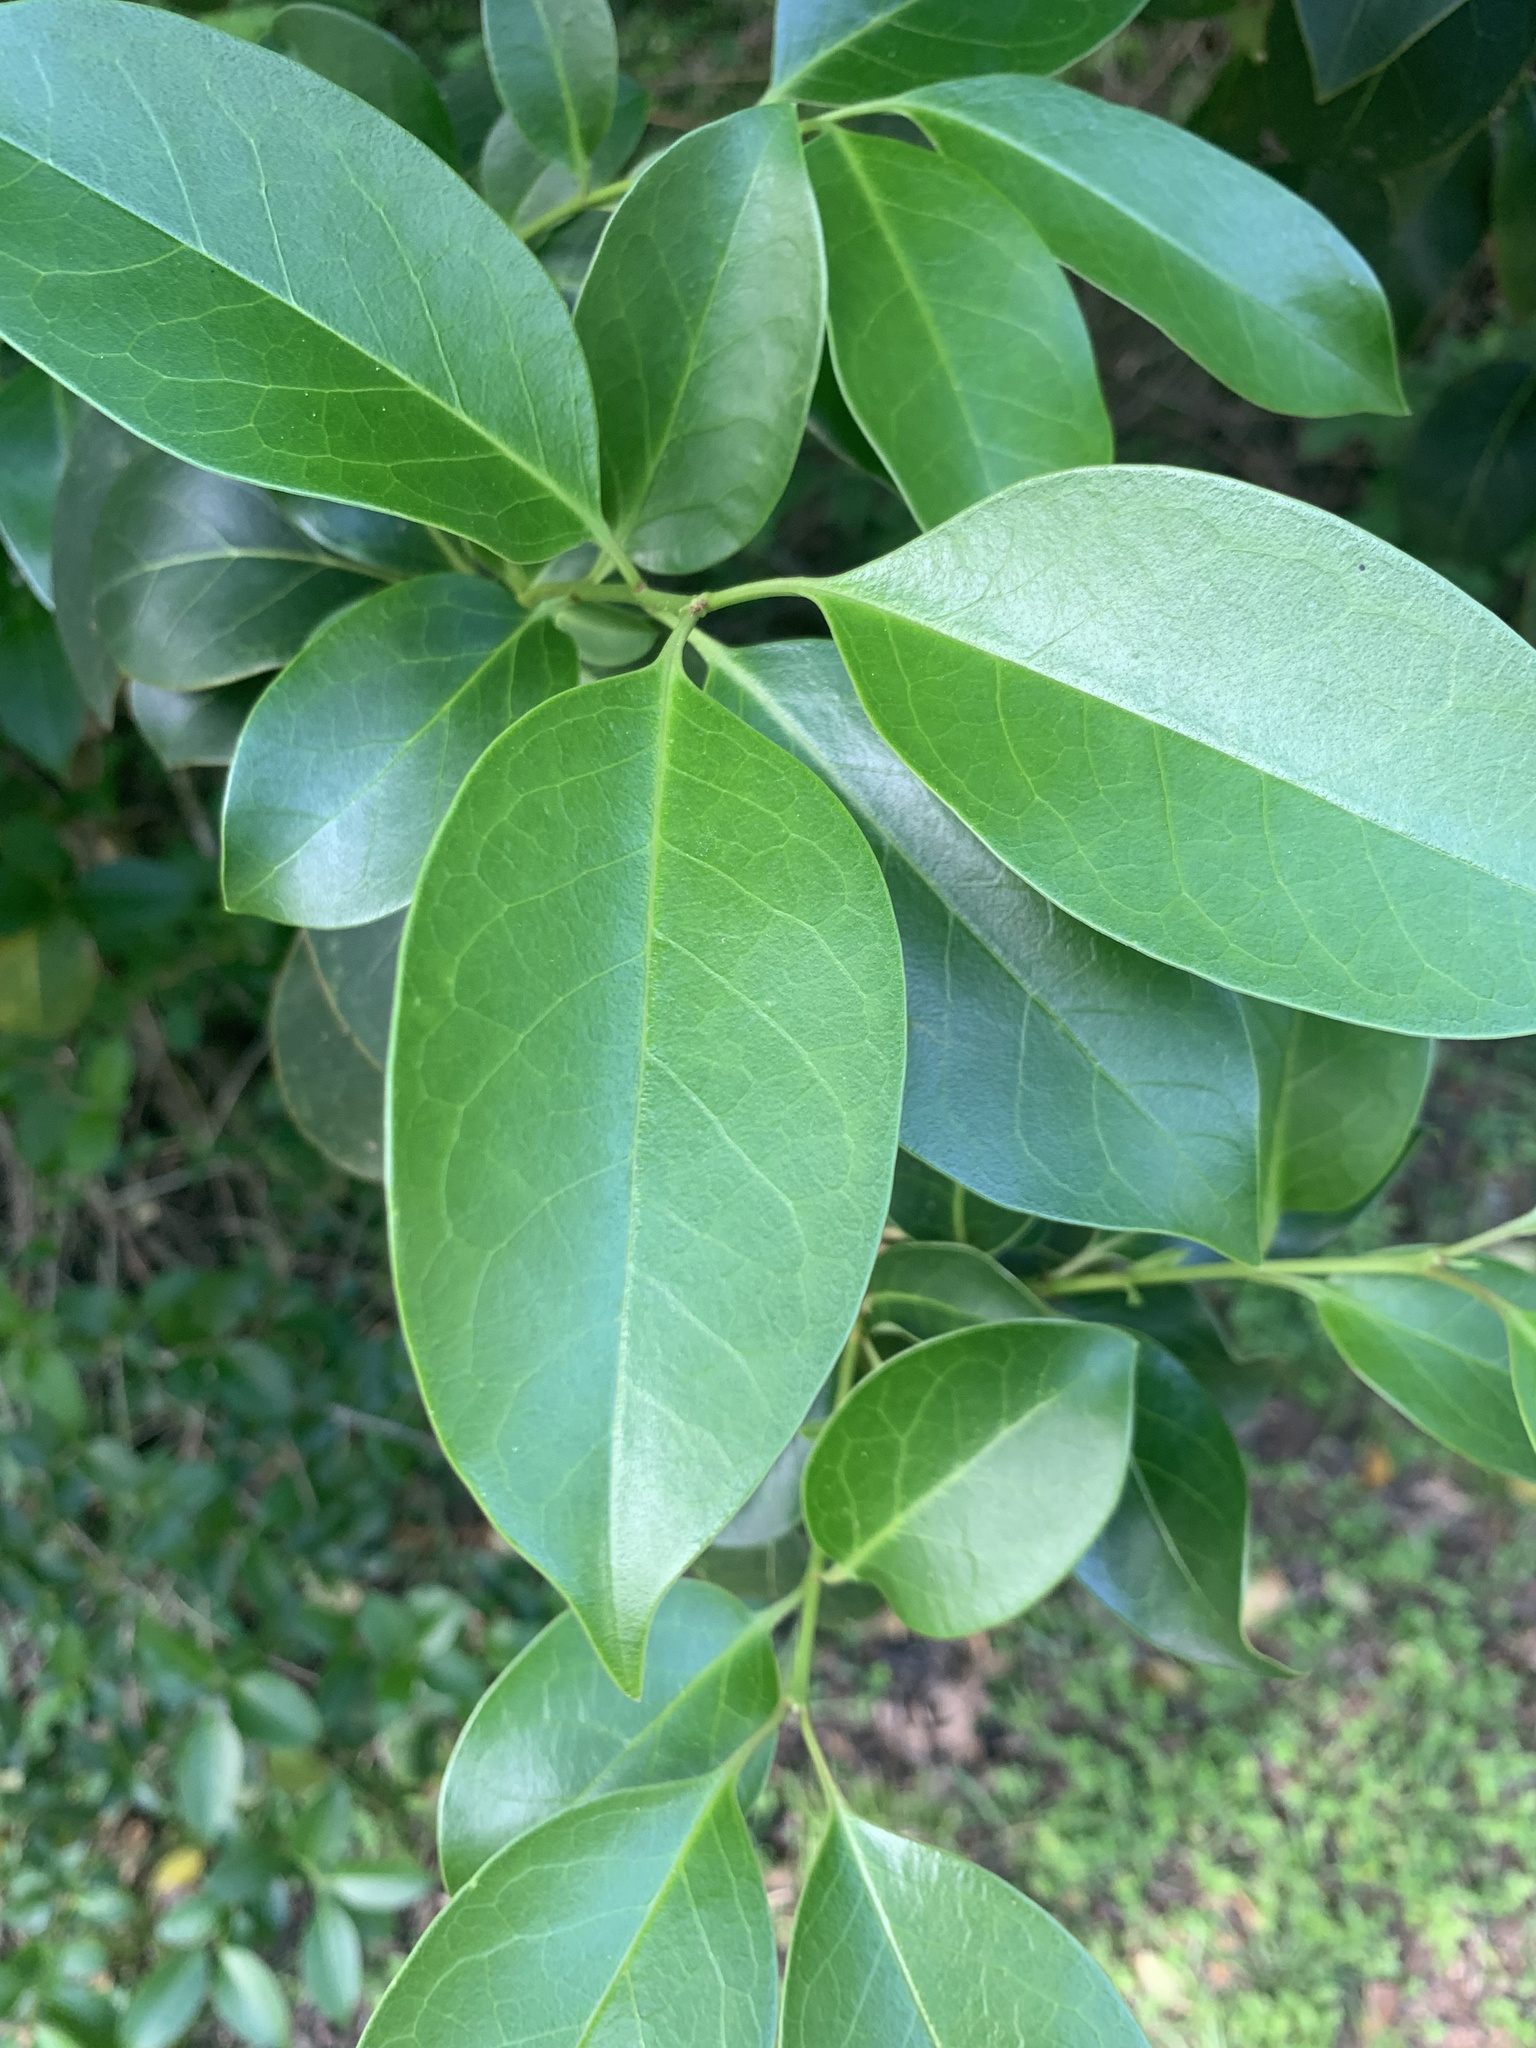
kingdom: Plantae
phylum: Tracheophyta
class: Magnoliopsida
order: Lamiales
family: Oleaceae
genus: Ligustrum
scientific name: Ligustrum lucidum
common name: Glossy privet
